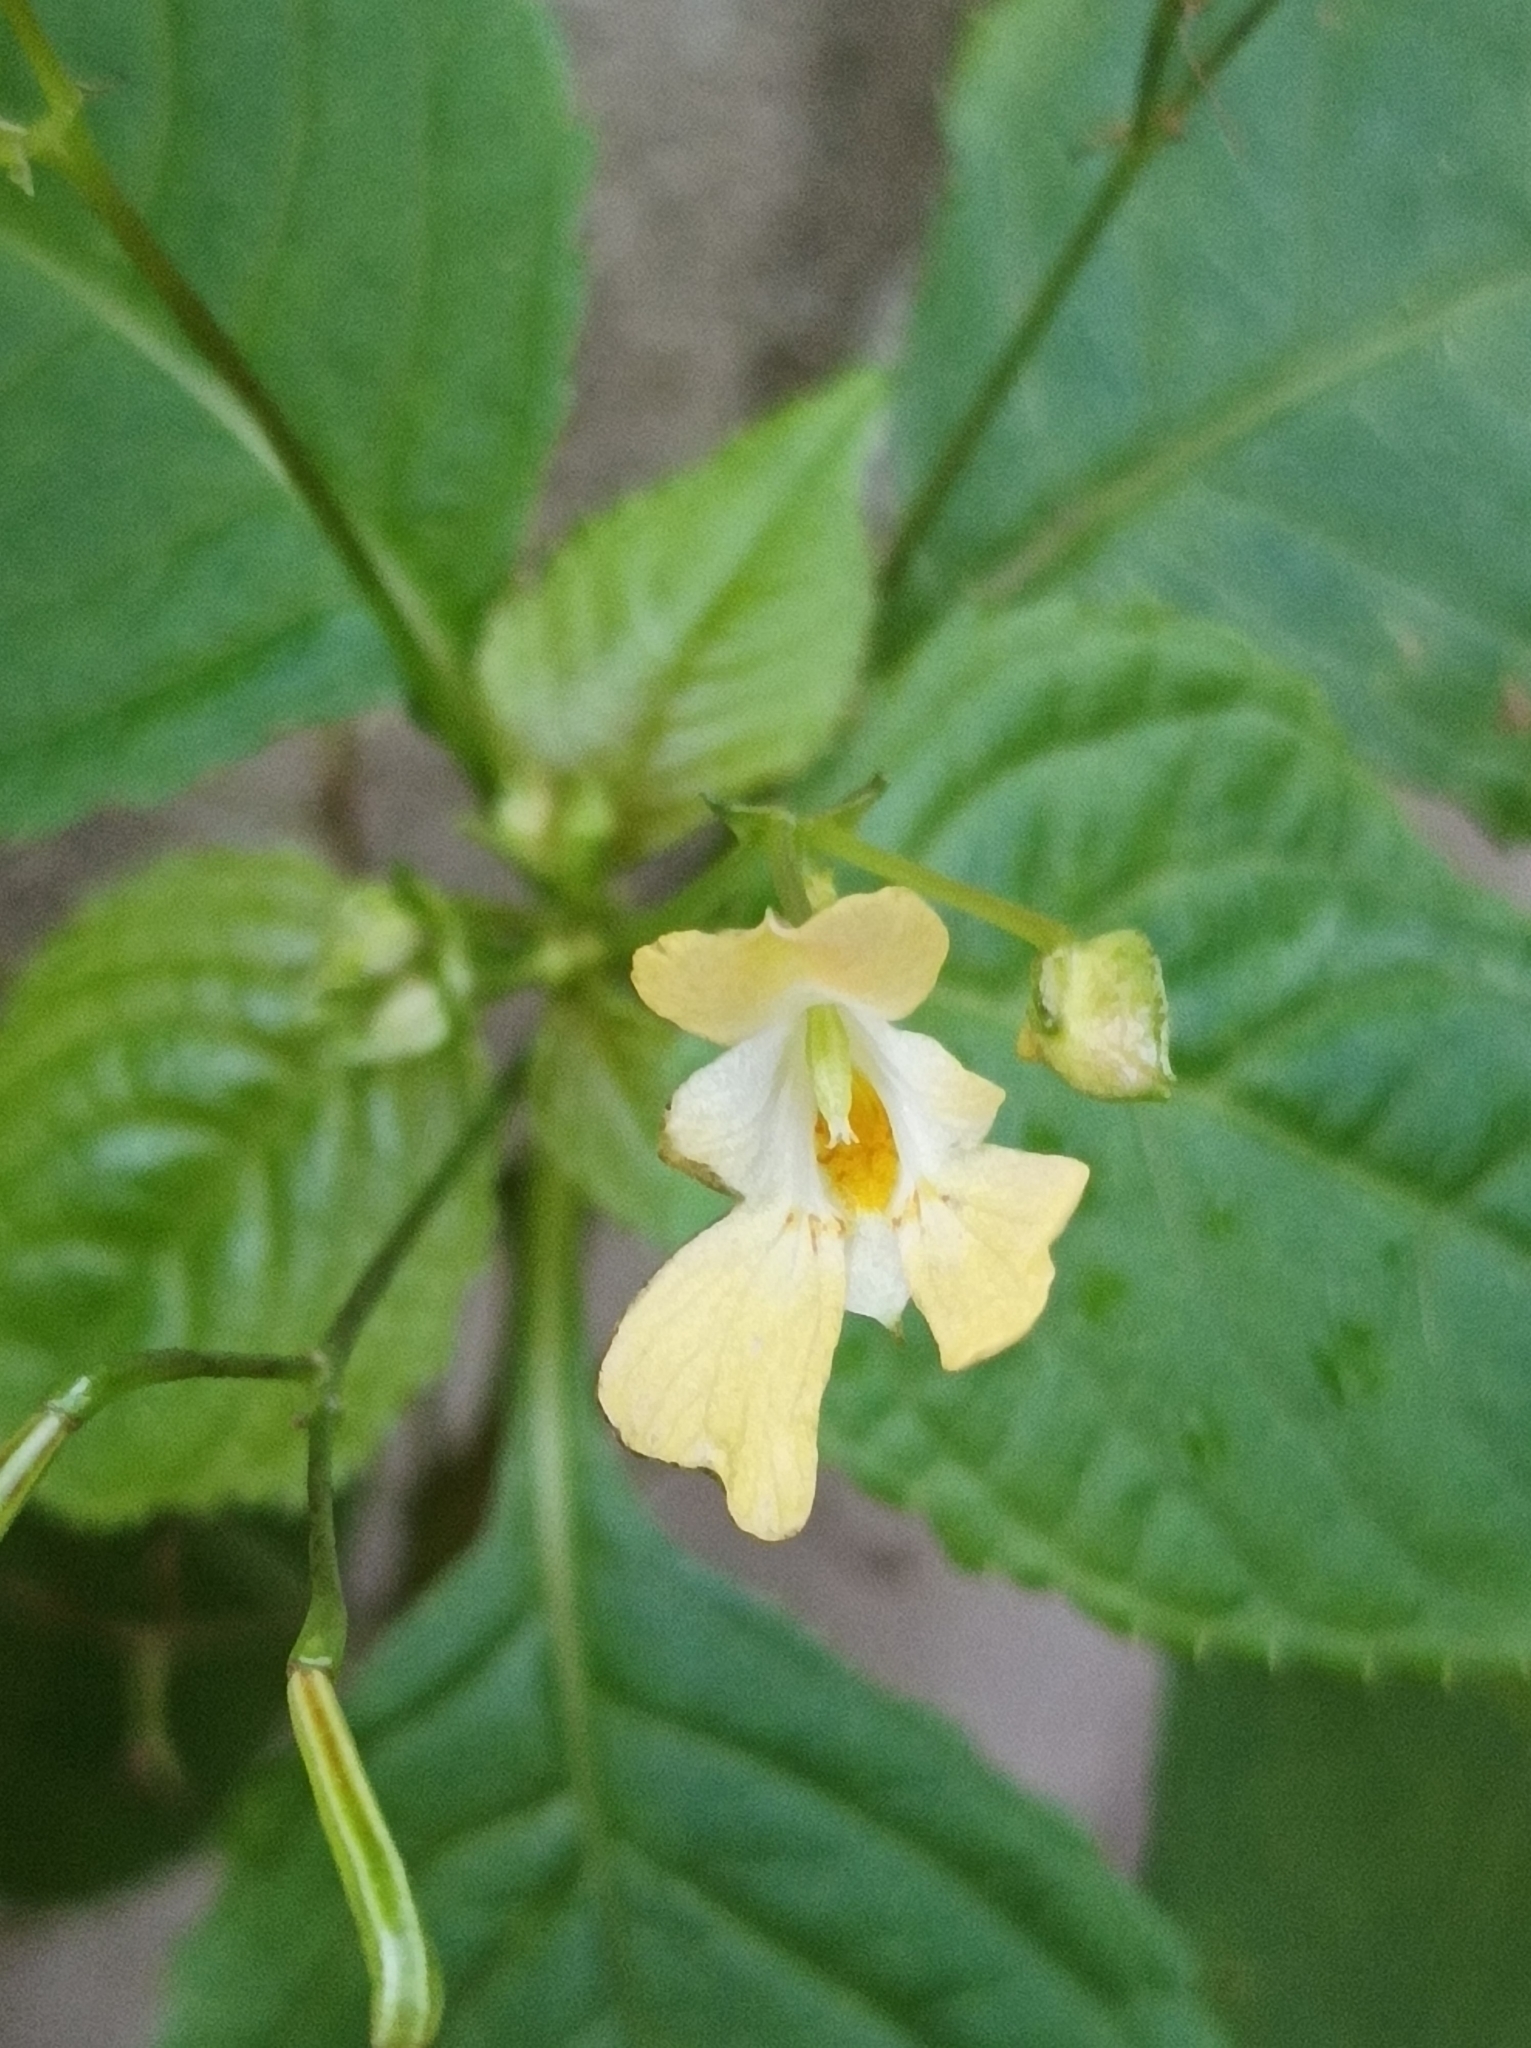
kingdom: Plantae
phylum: Tracheophyta
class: Magnoliopsida
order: Ericales
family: Balsaminaceae
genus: Impatiens
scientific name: Impatiens parviflora
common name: Small balsam
